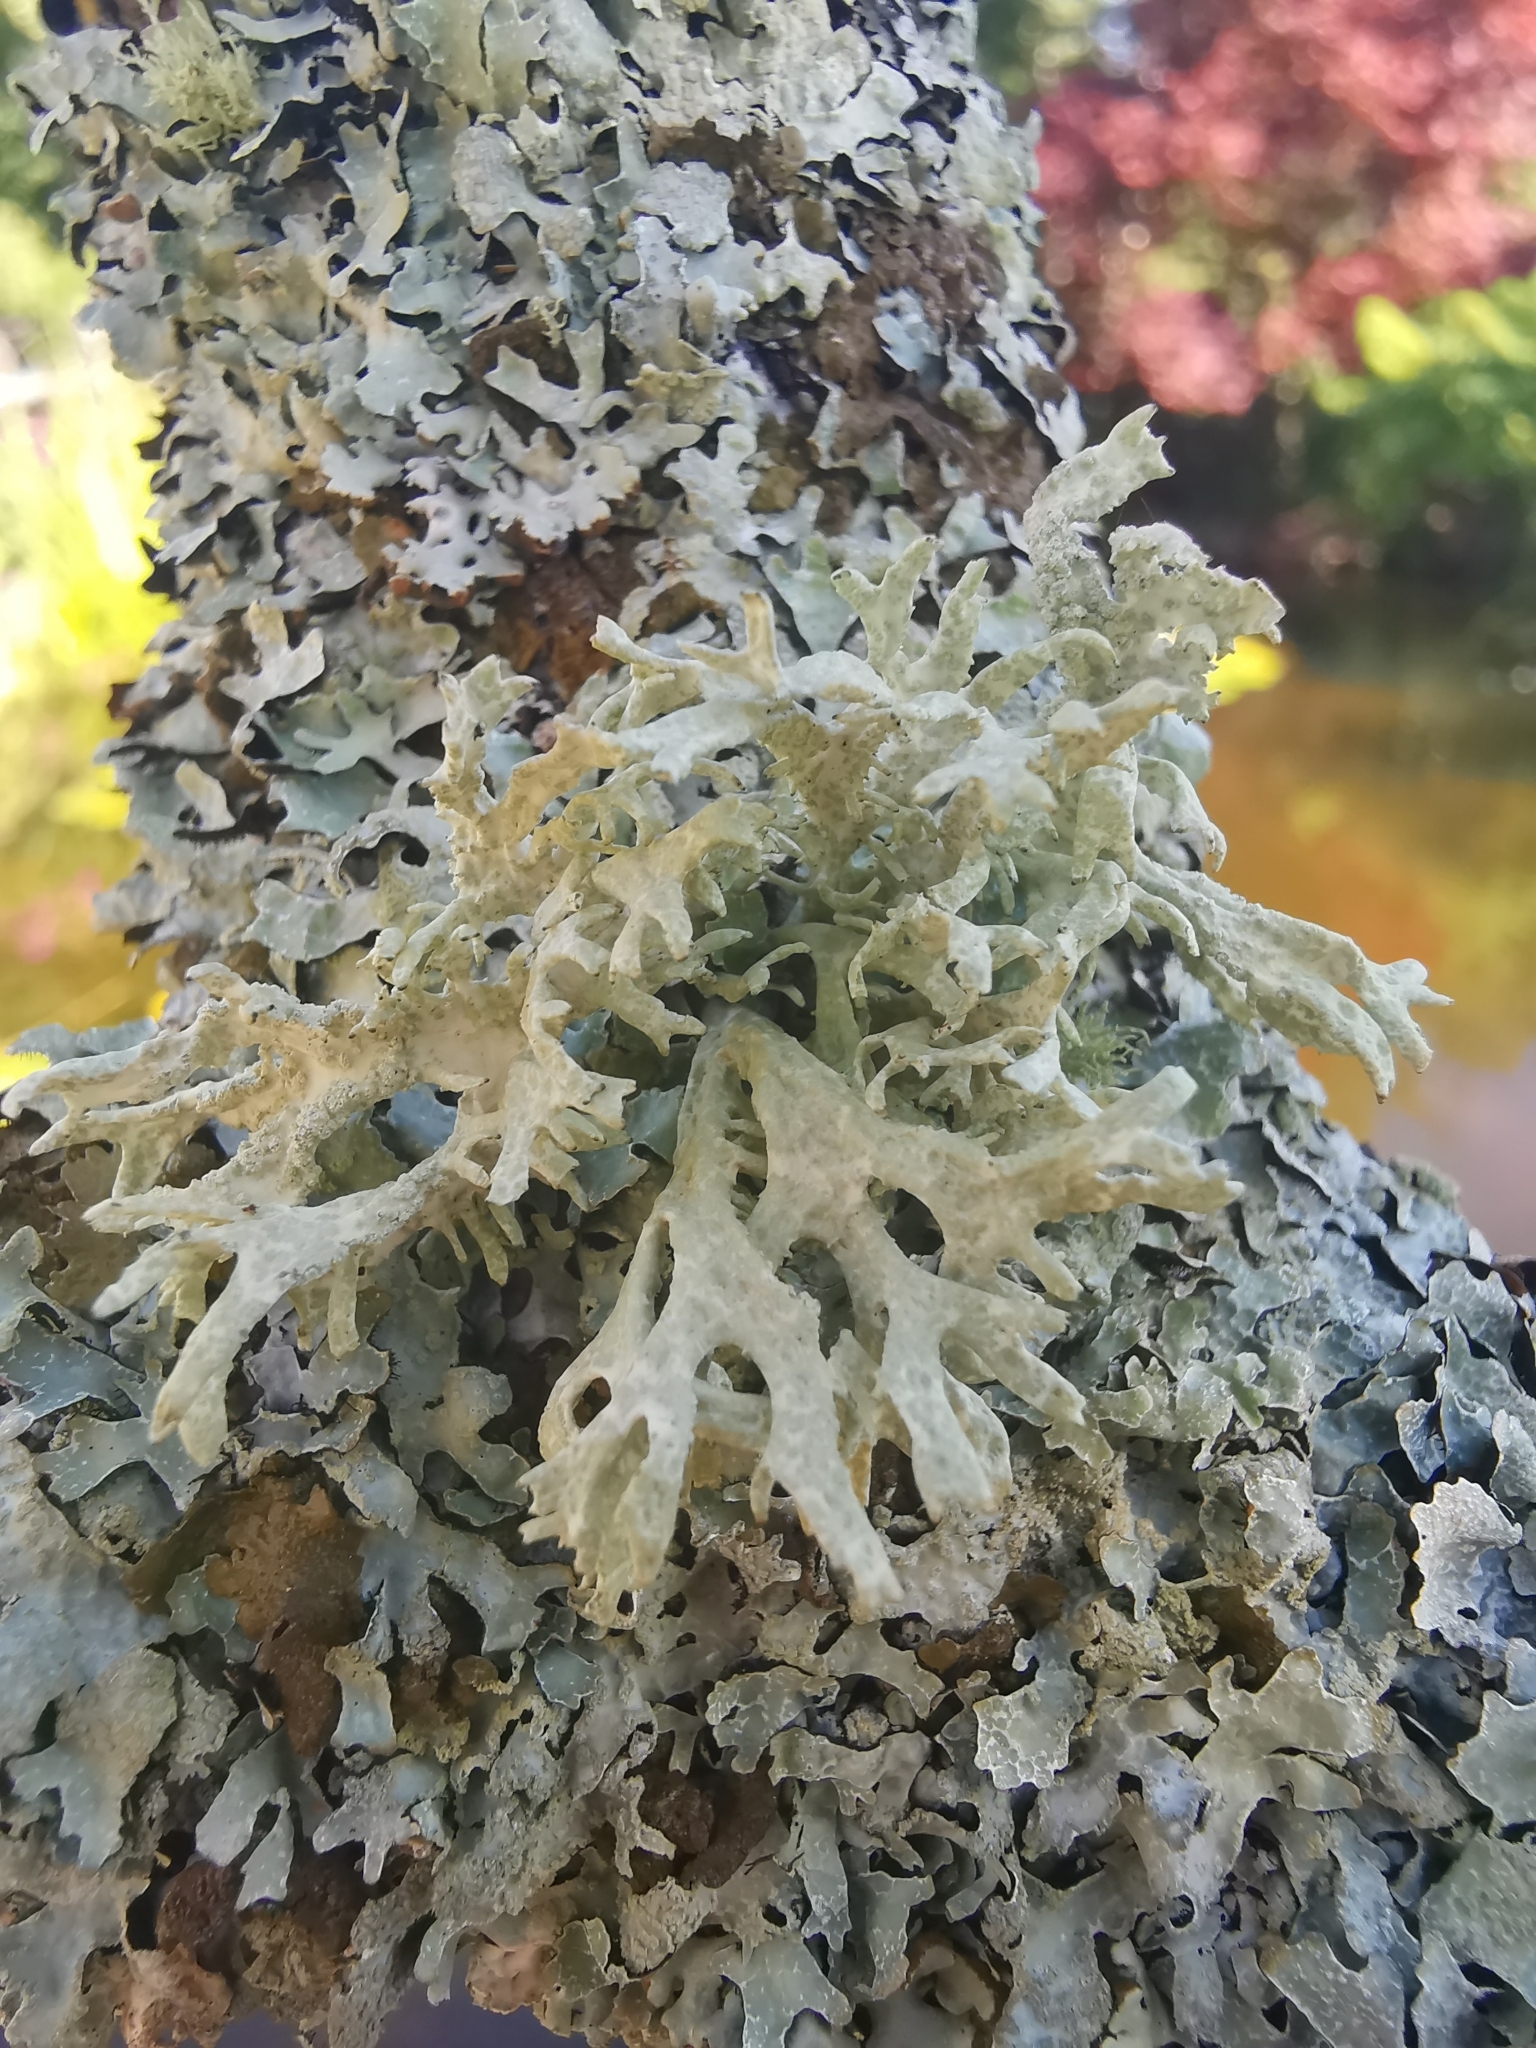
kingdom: Fungi
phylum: Ascomycota
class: Lecanoromycetes
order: Lecanorales
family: Parmeliaceae
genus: Evernia
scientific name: Evernia prunastri
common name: Oak moss
